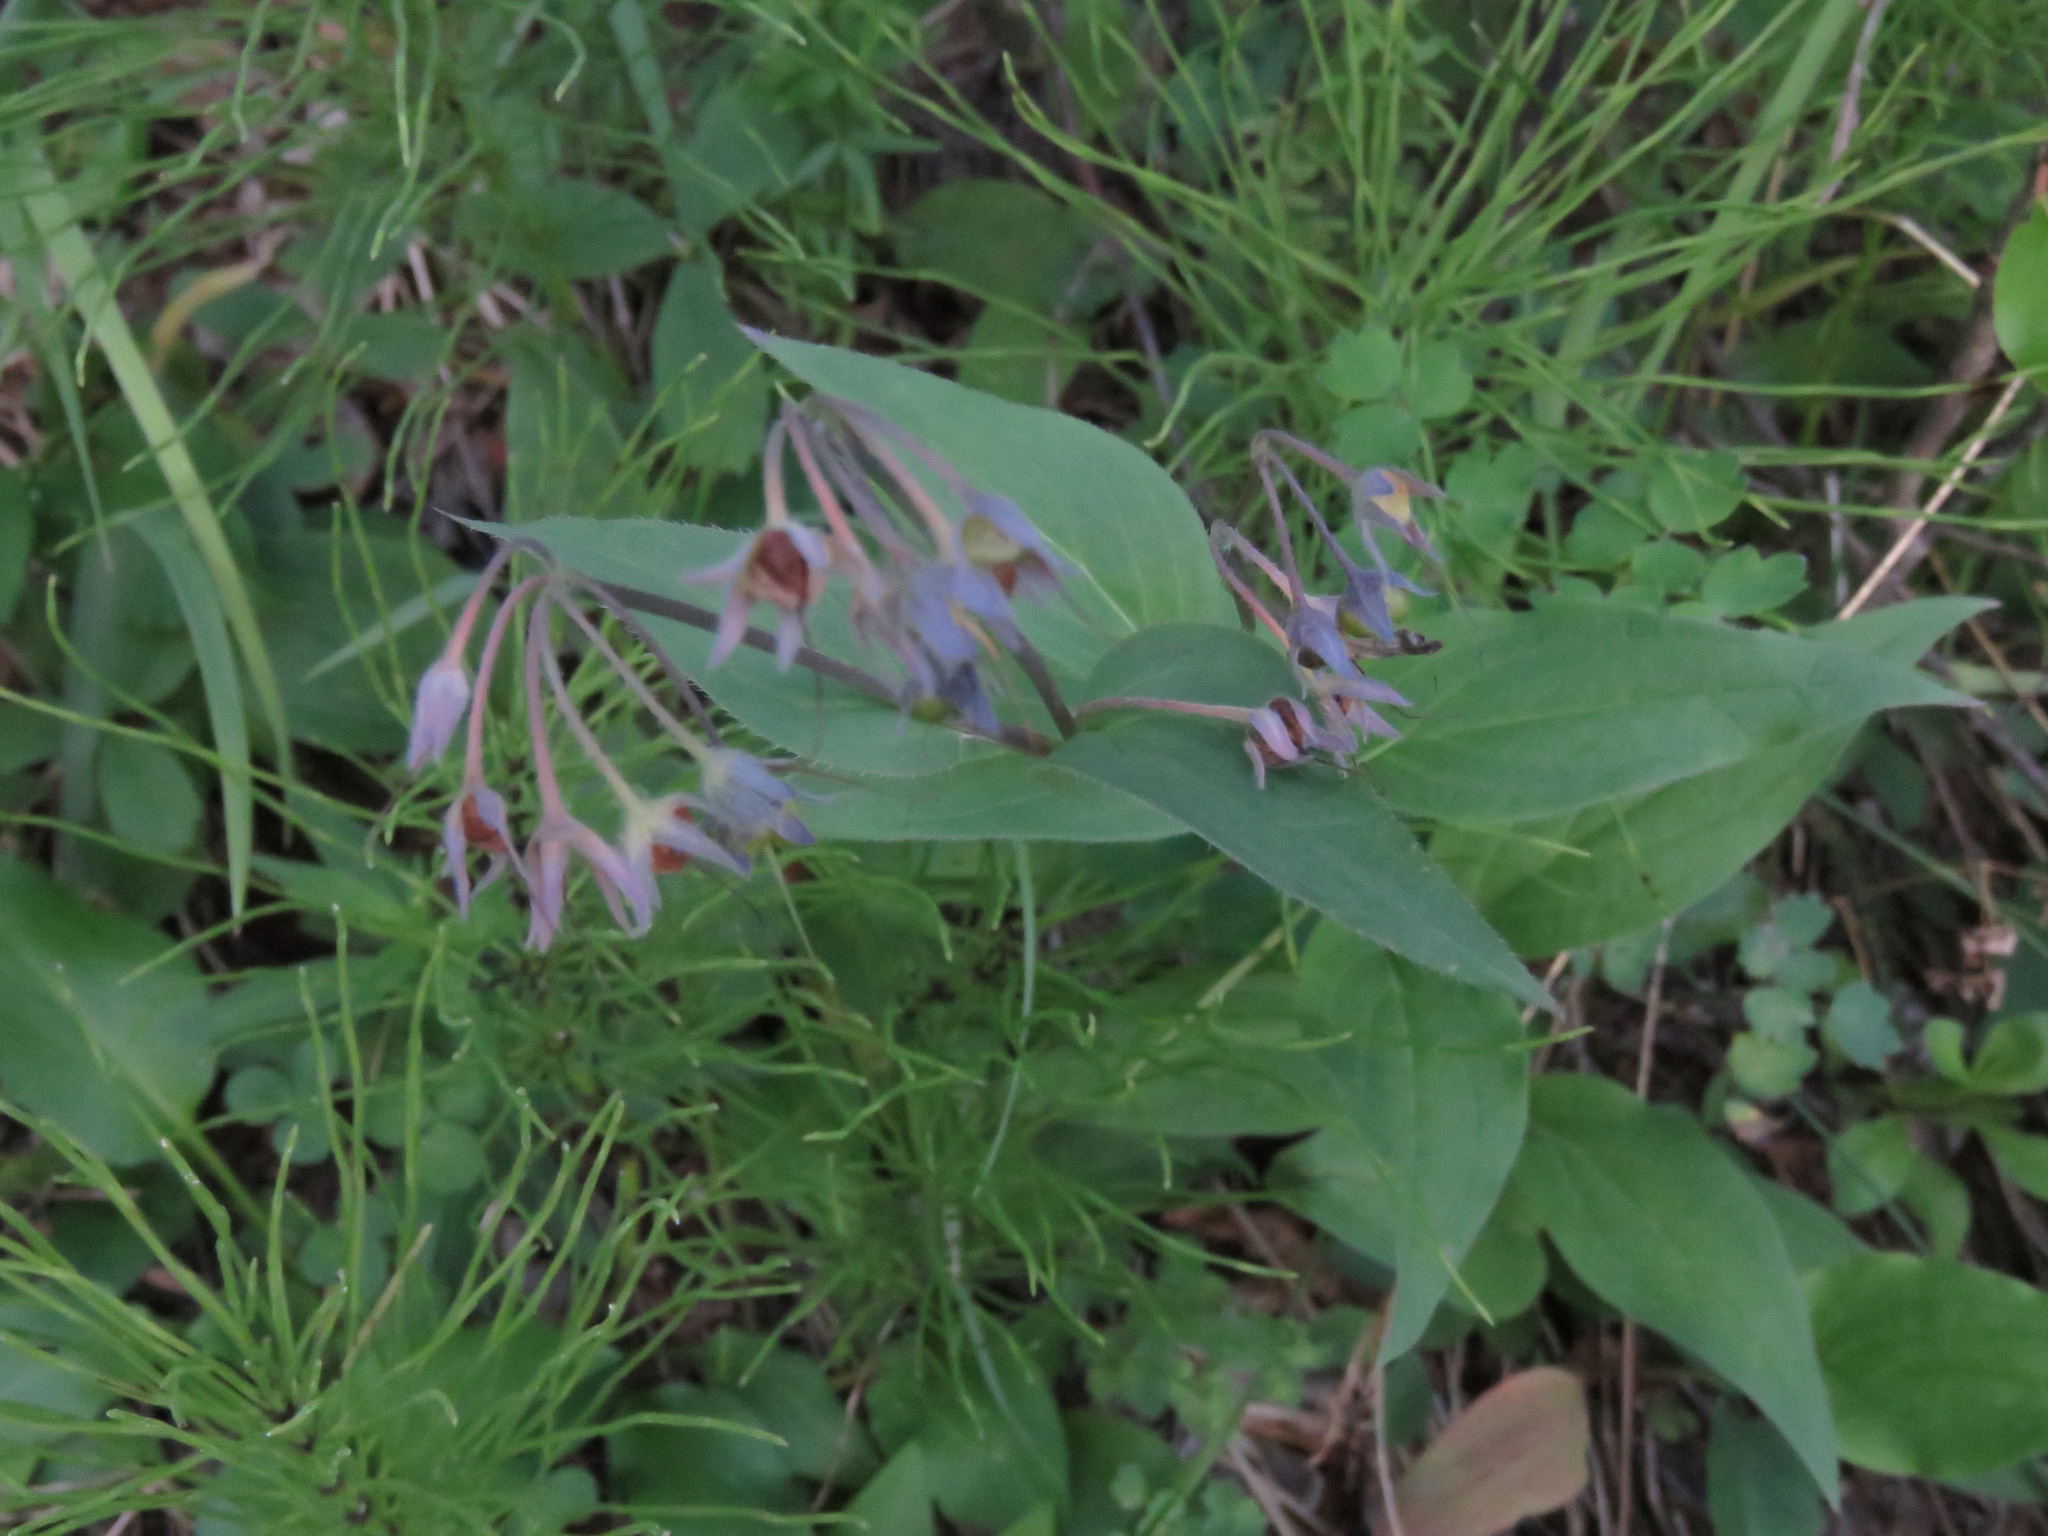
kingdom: Plantae
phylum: Tracheophyta
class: Magnoliopsida
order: Boraginales
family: Boraginaceae
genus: Mertensia
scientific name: Mertensia paniculata
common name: Panicled bluebells
